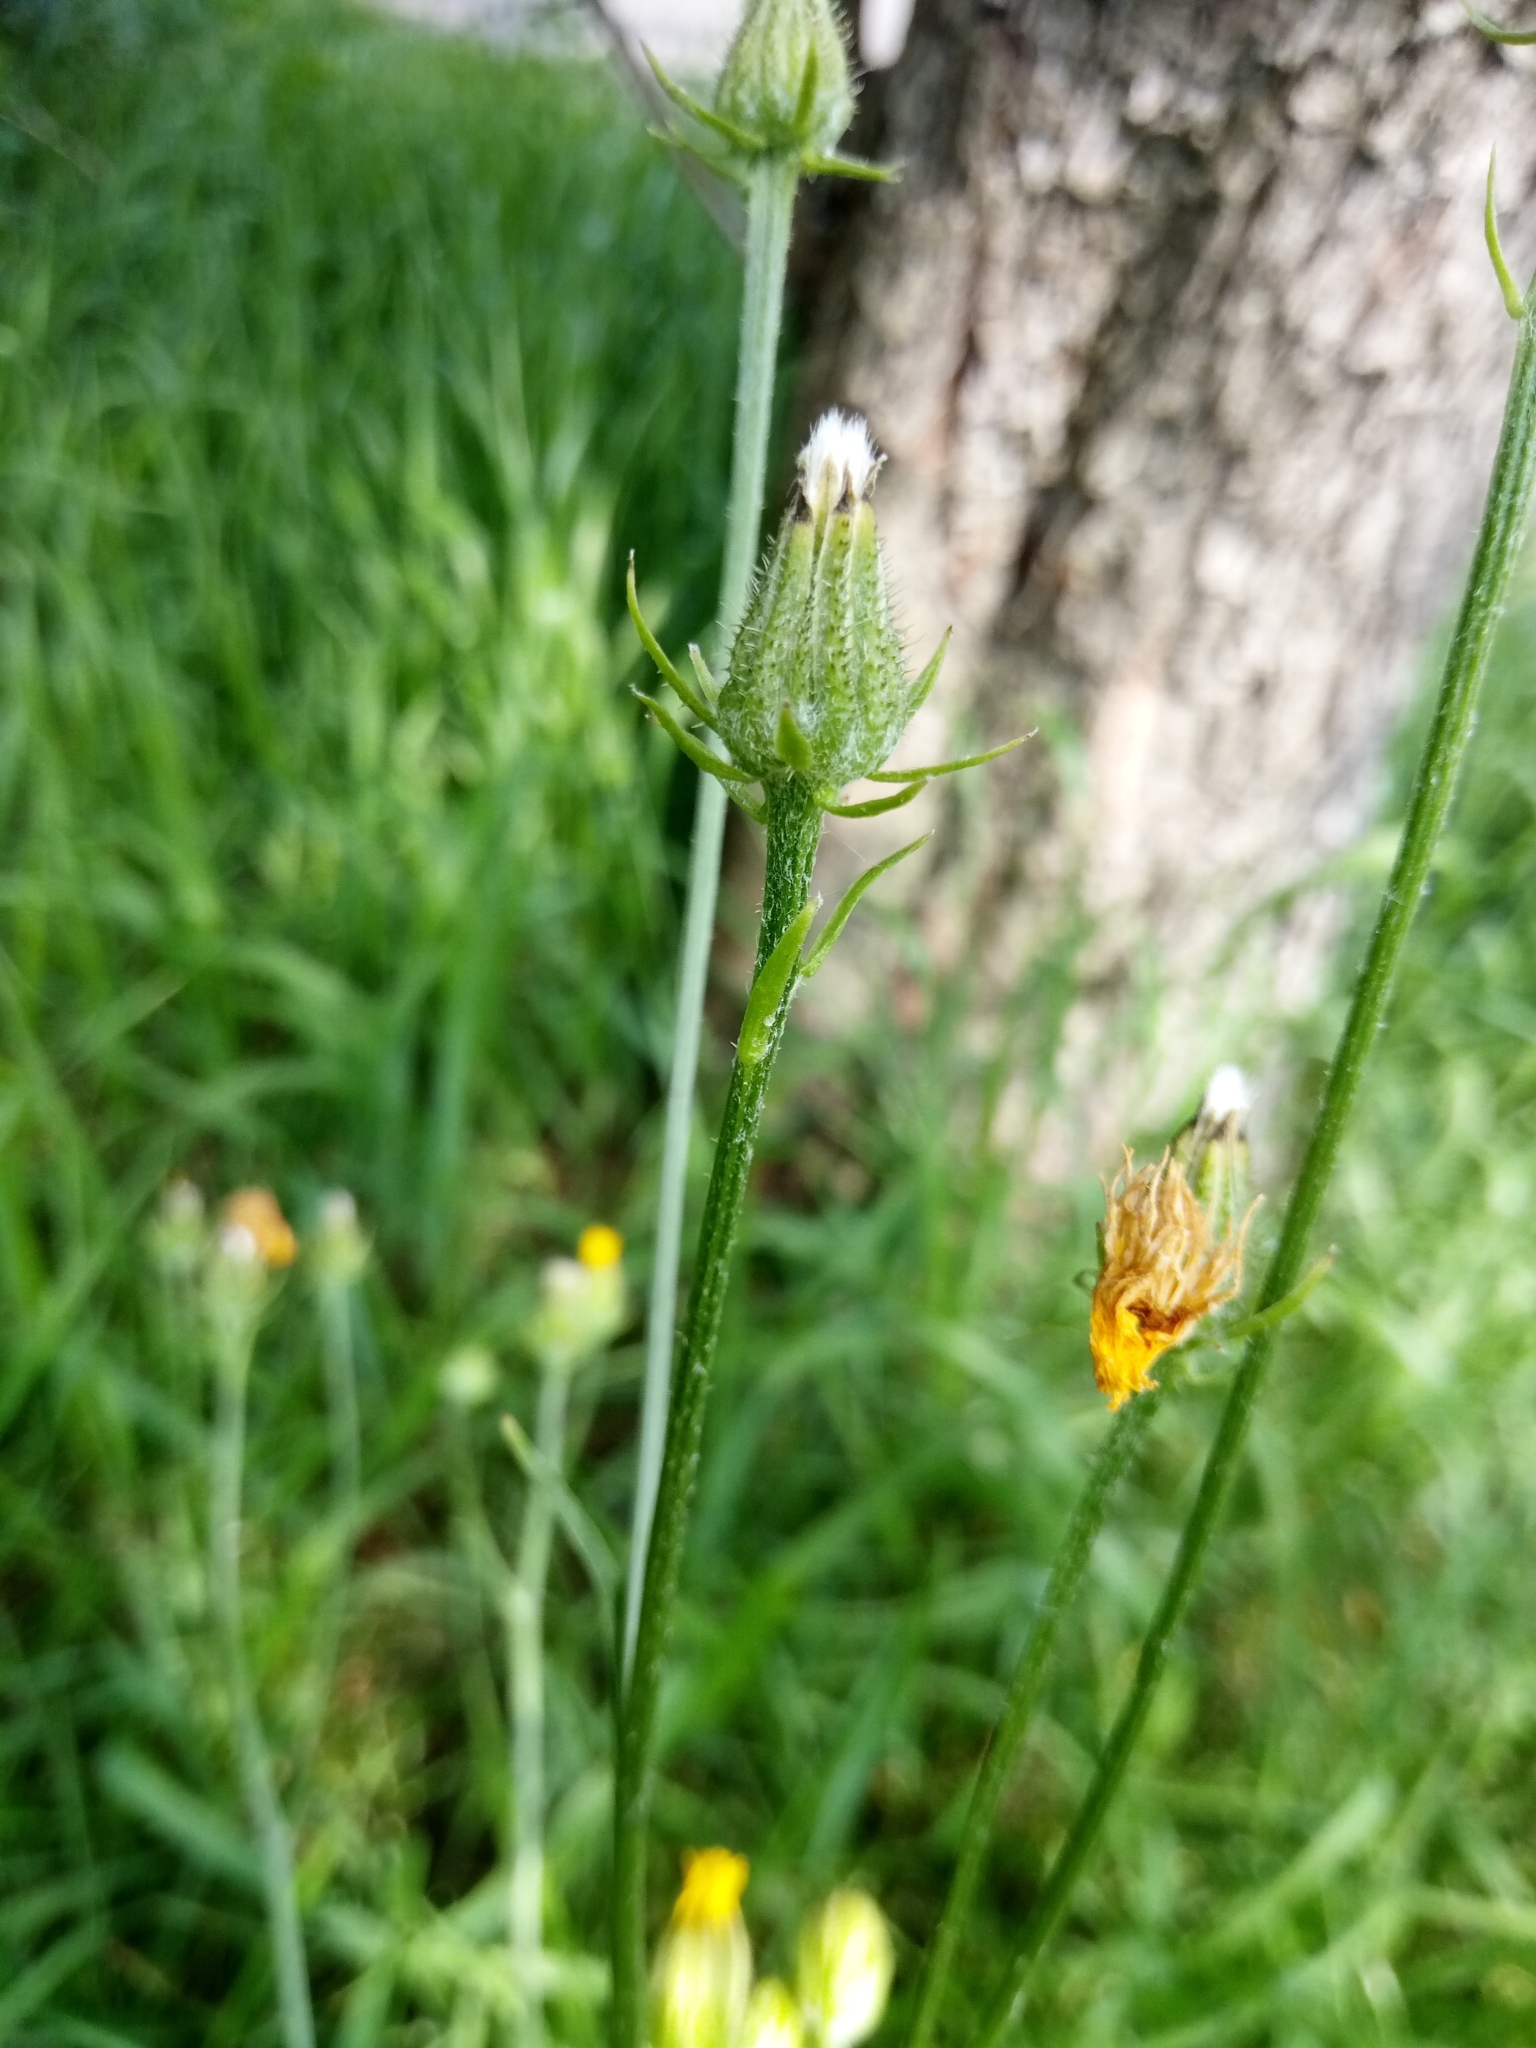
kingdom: Plantae
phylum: Tracheophyta
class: Magnoliopsida
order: Asterales
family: Asteraceae
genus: Crepis
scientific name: Crepis biennis
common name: Rough hawk's-beard
